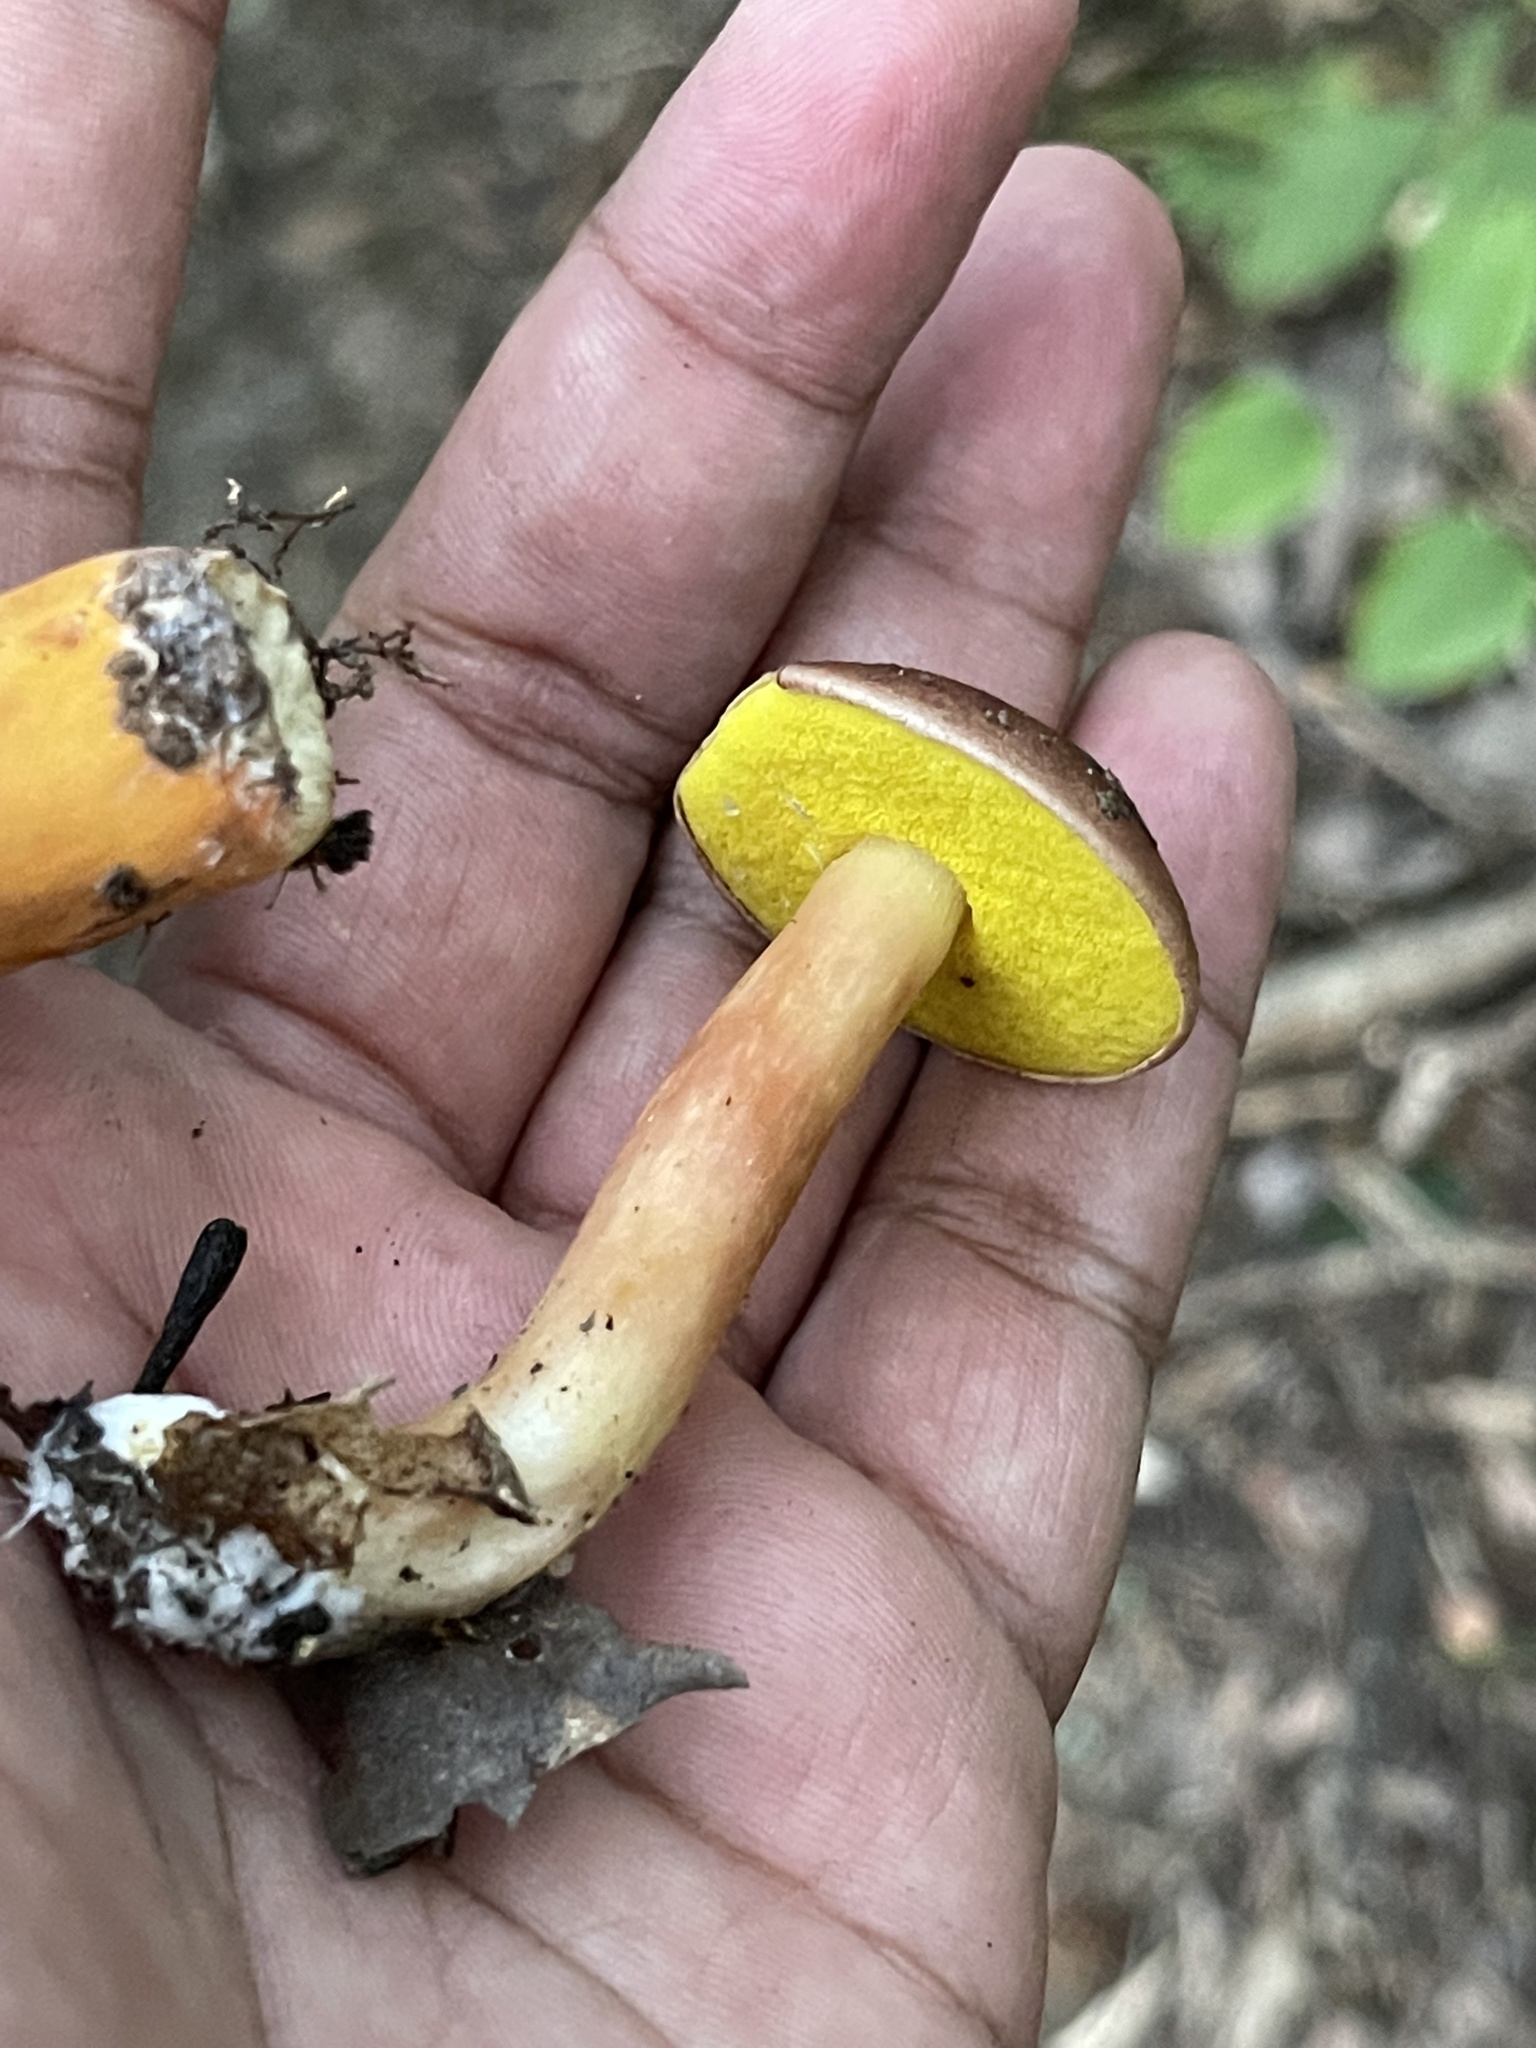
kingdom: Fungi
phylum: Basidiomycota
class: Agaricomycetes
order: Boletales
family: Boletaceae
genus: Aureoboletus
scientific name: Aureoboletus auriporus
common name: Sour gold-pored bolete
